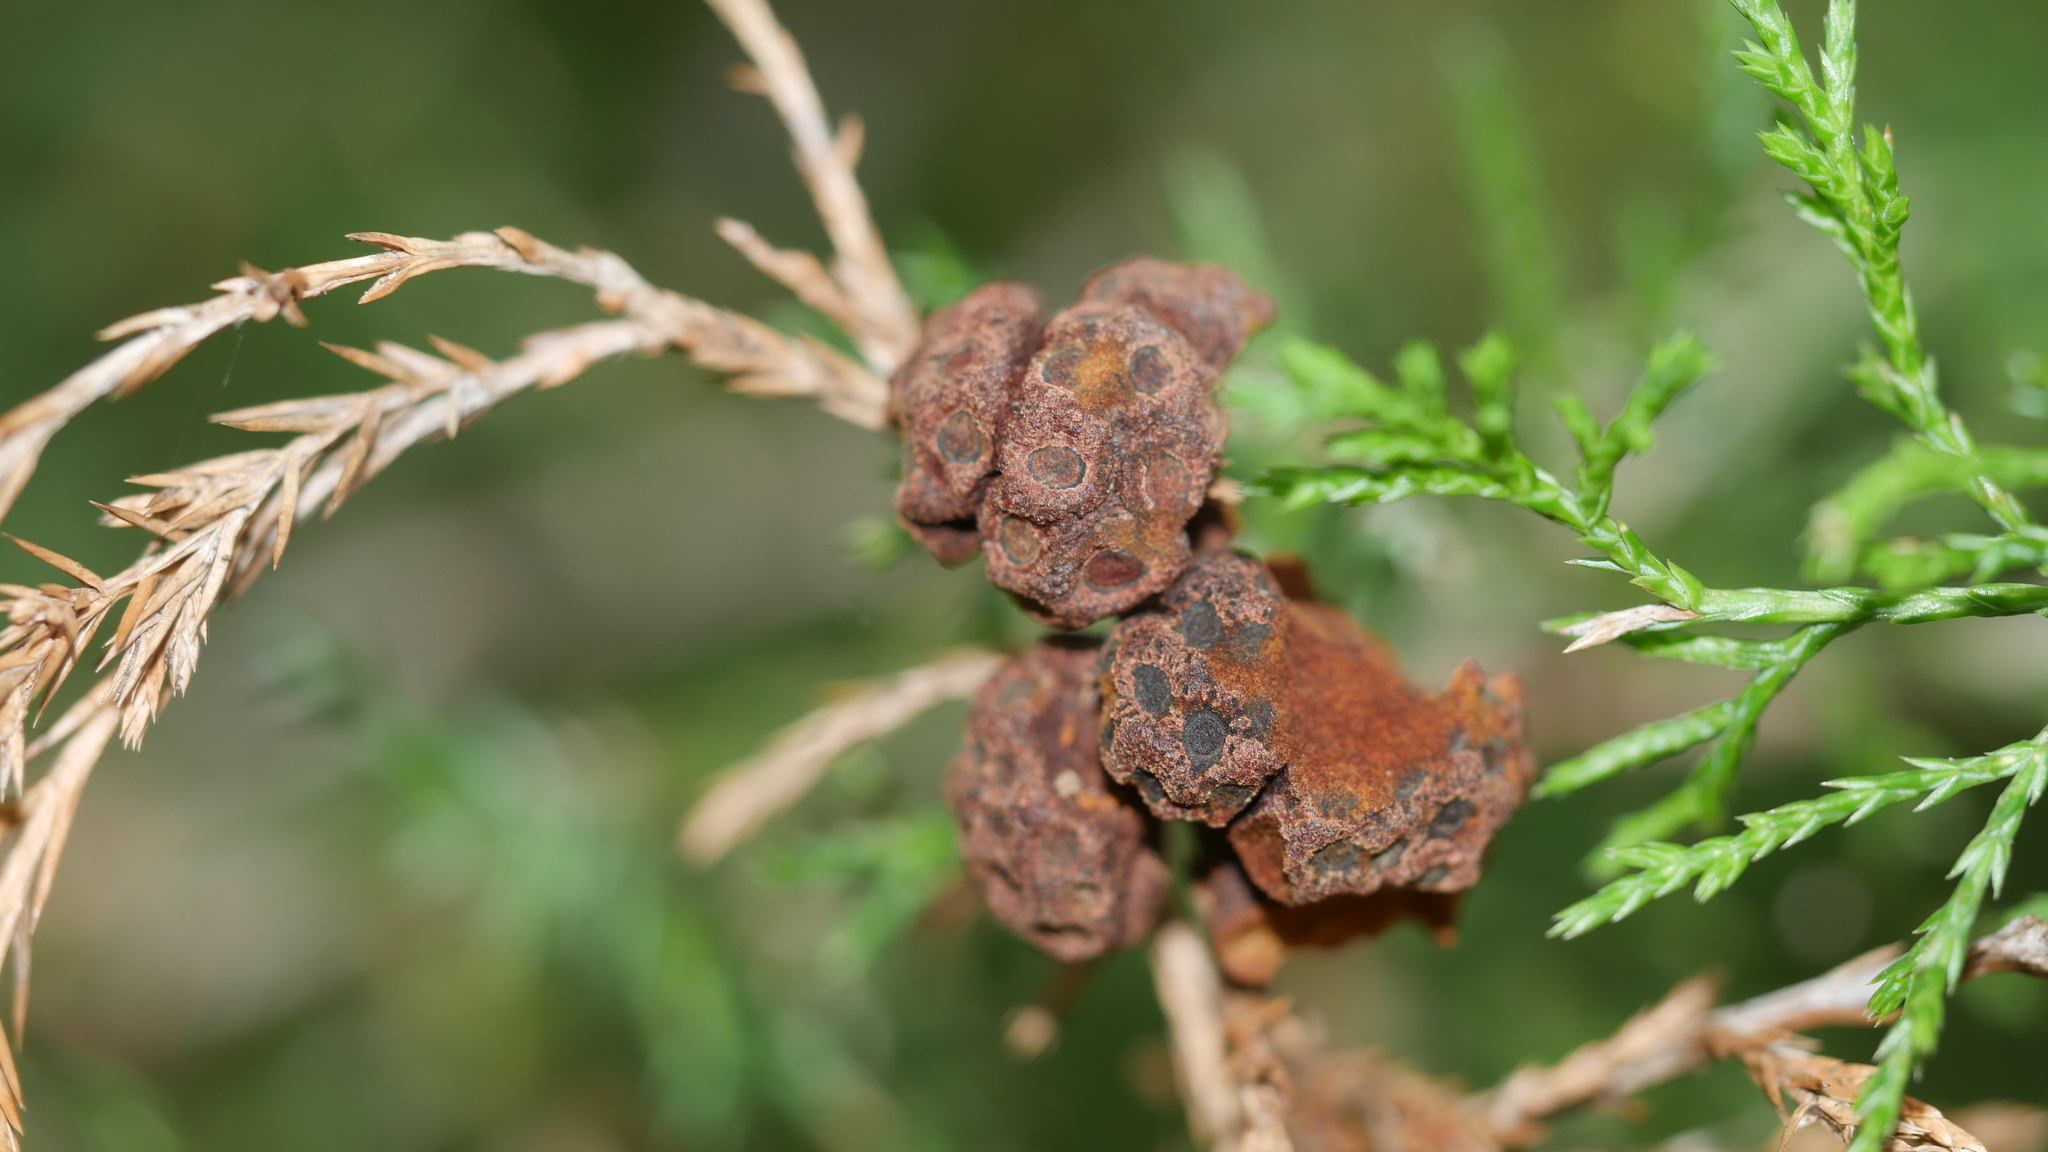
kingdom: Fungi
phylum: Basidiomycota
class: Pucciniomycetes
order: Pucciniales
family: Gymnosporangiaceae
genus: Gymnosporangium
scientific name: Gymnosporangium juniperi-virginianae
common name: Juniper-apple rust
